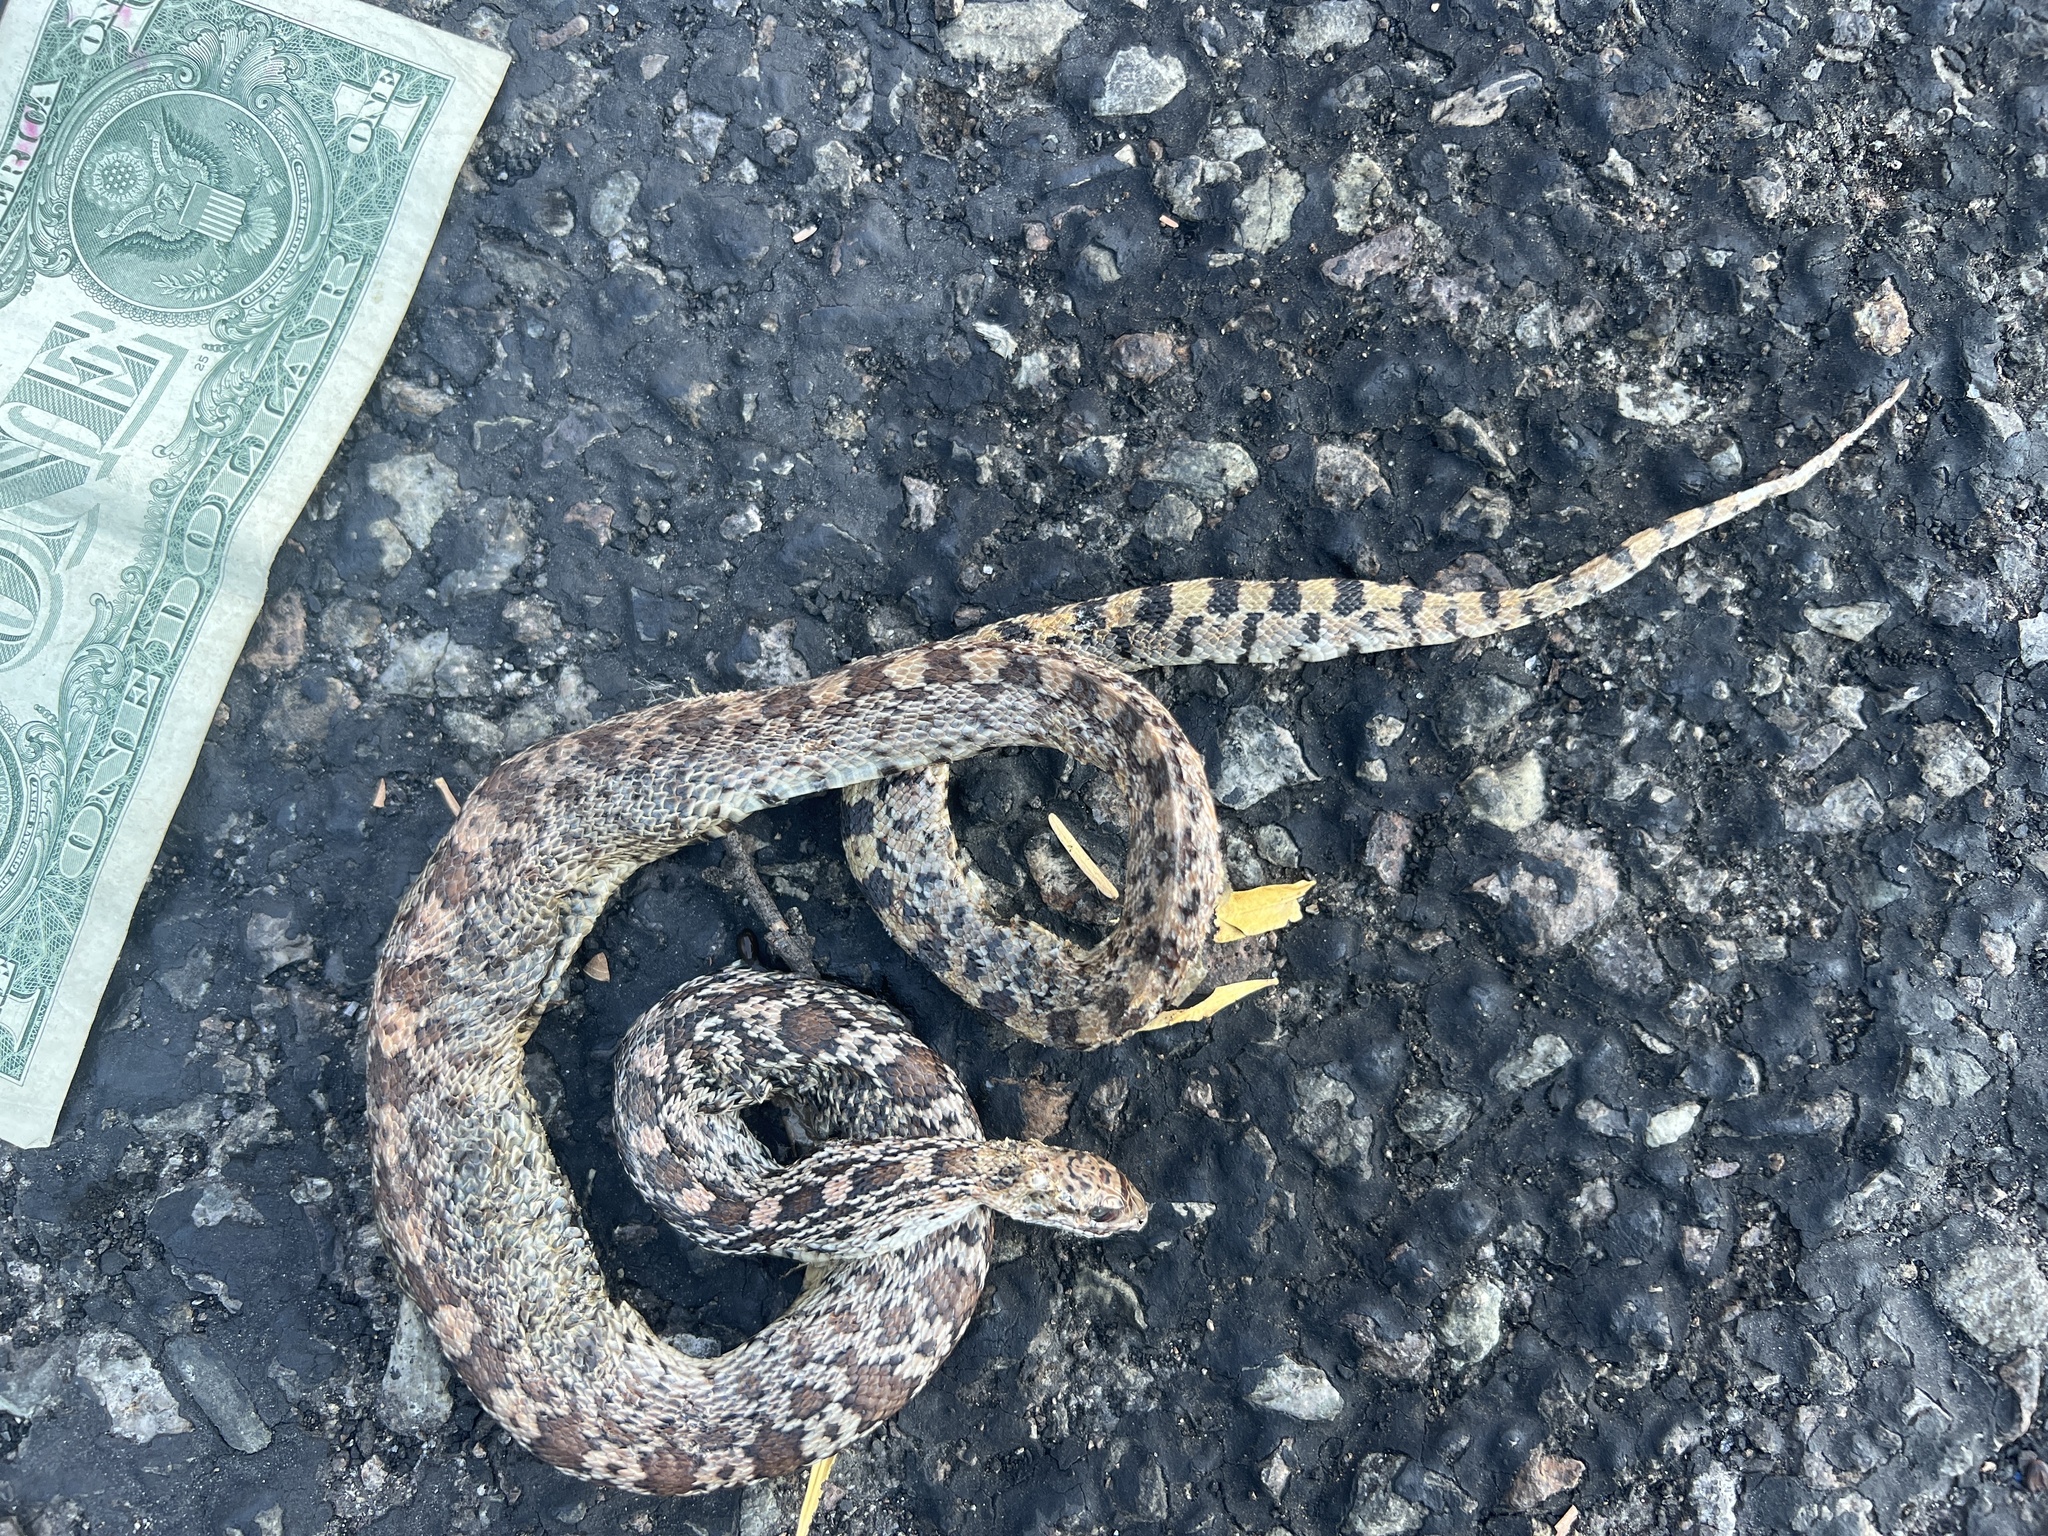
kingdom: Animalia
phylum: Chordata
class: Squamata
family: Colubridae
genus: Pituophis
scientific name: Pituophis catenifer
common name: Gopher snake
